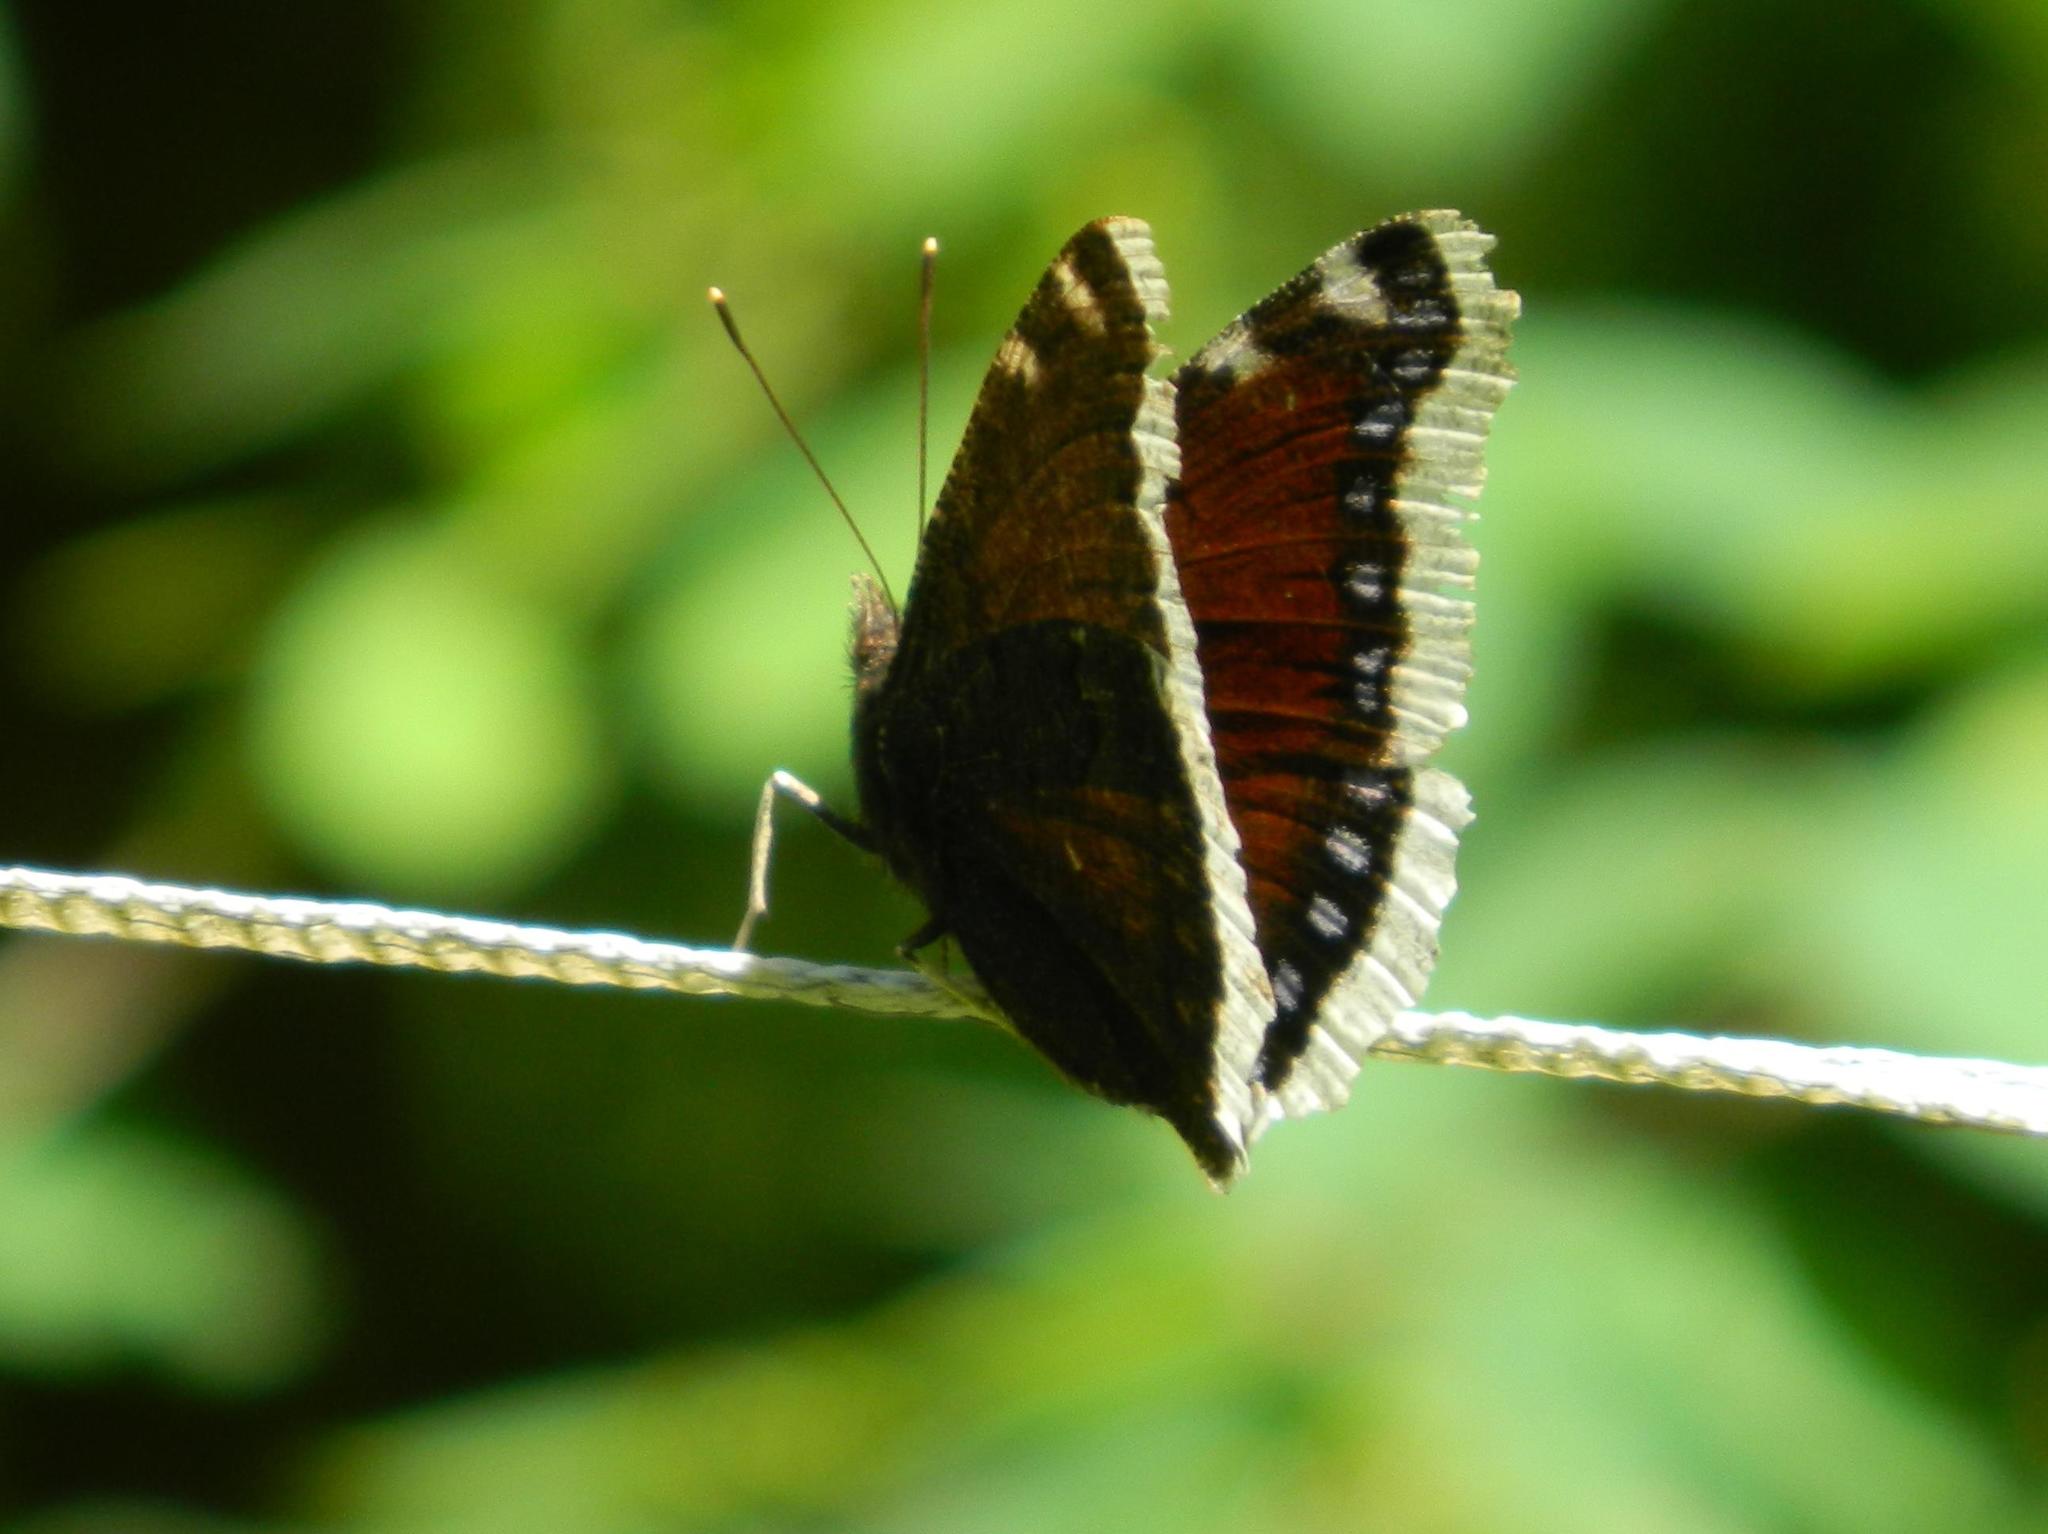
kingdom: Animalia
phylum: Arthropoda
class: Insecta
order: Lepidoptera
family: Nymphalidae
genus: Nymphalis
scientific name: Nymphalis antiopa
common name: Camberwell beauty
